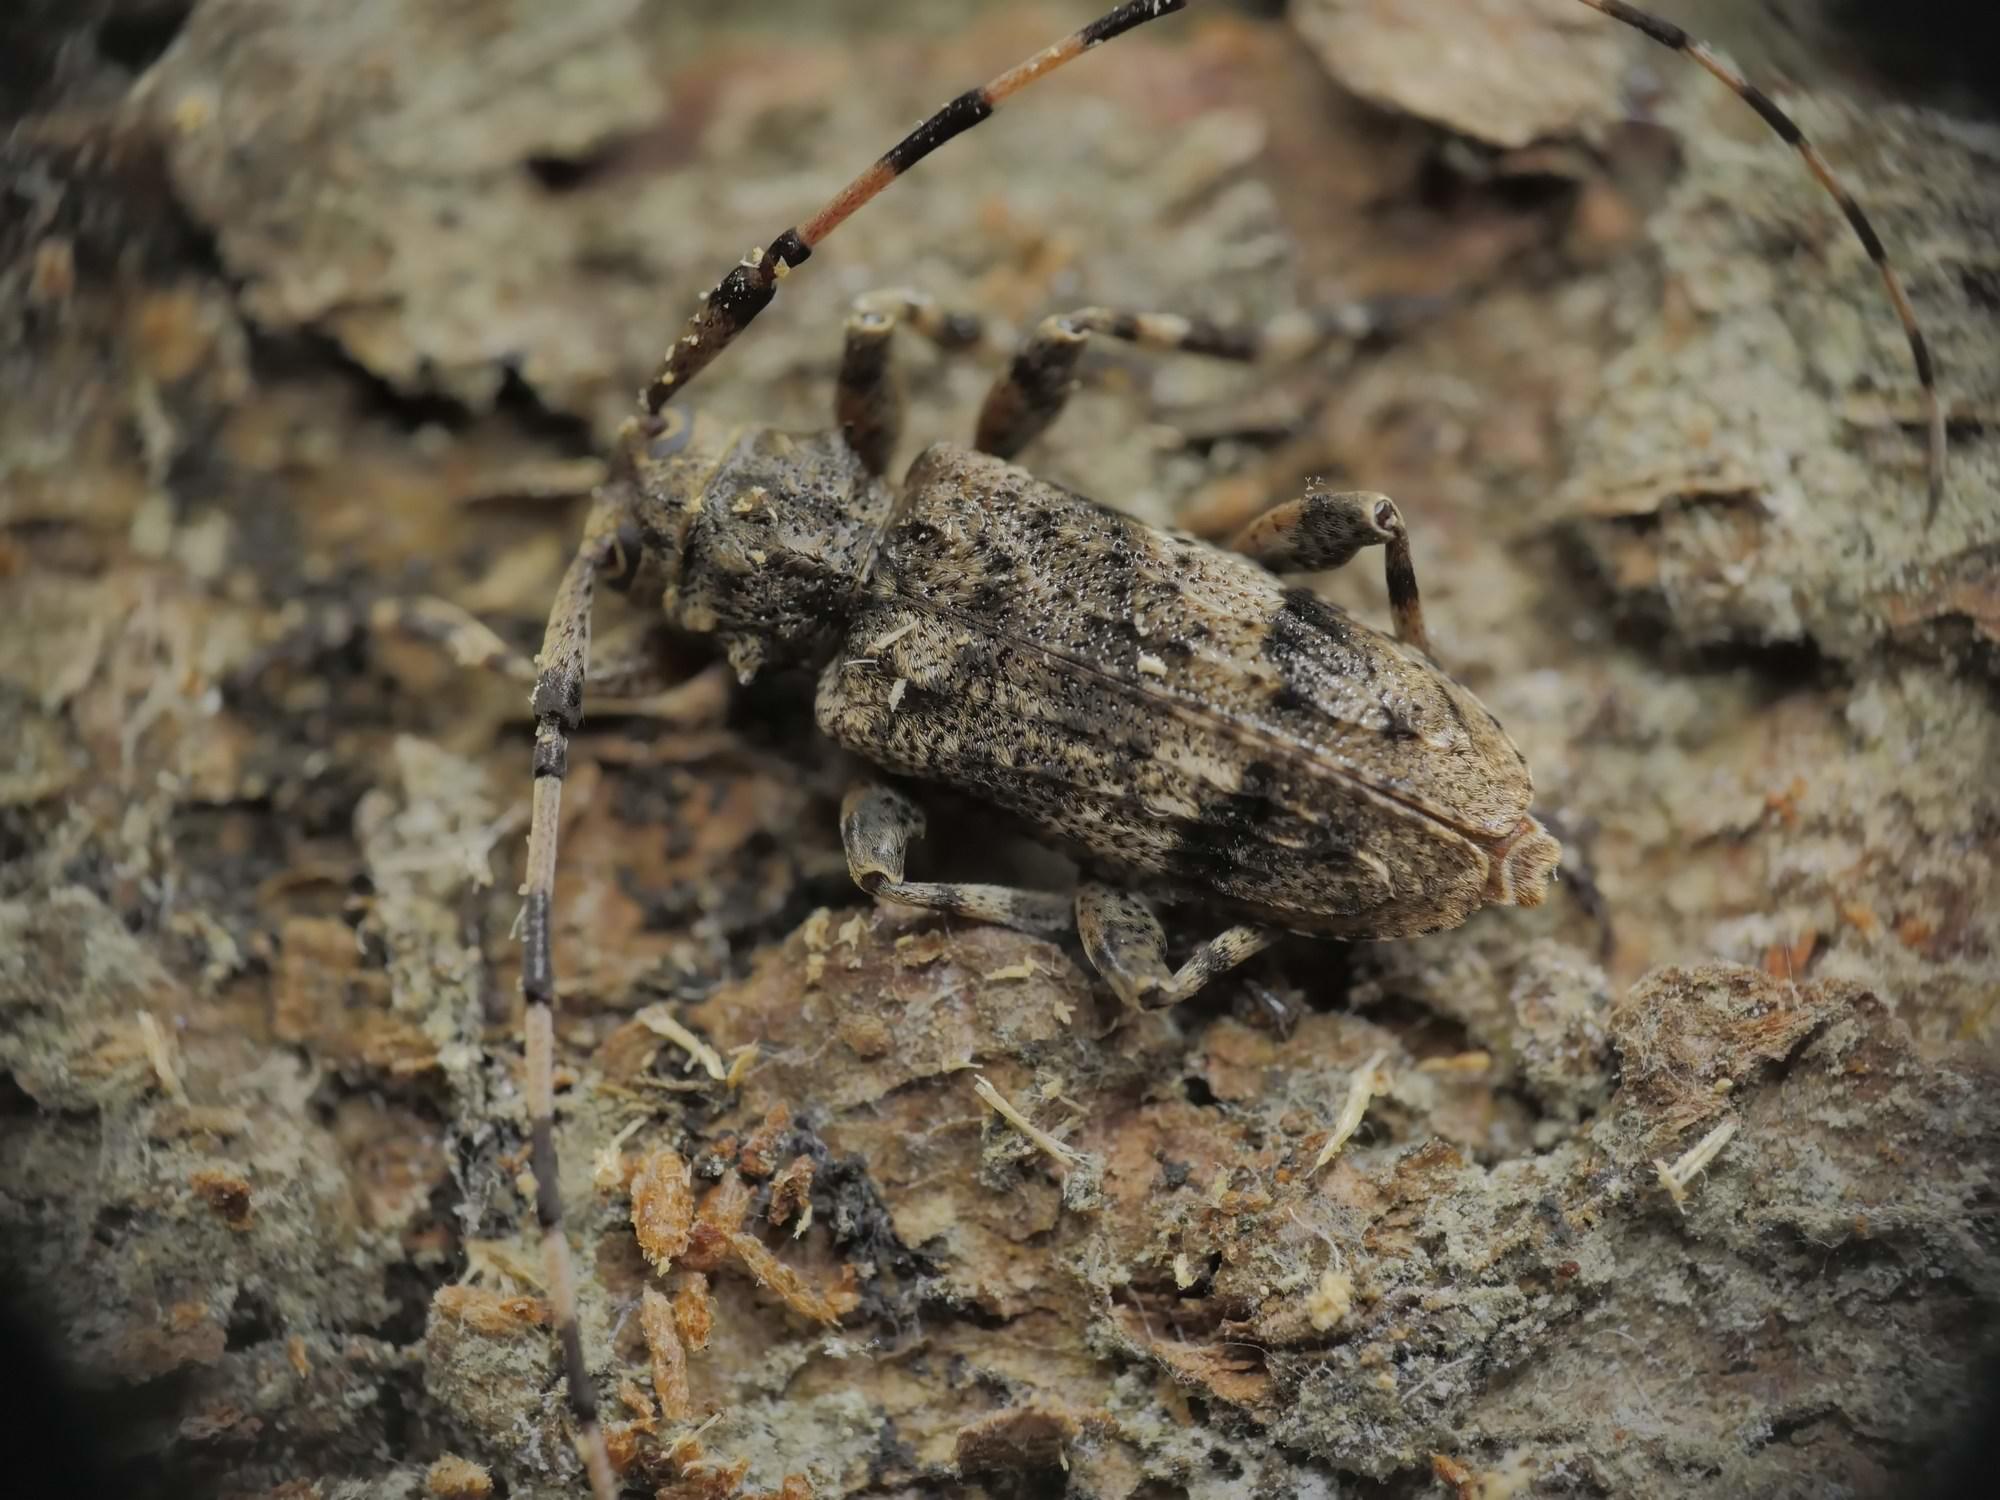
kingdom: Animalia
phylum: Arthropoda
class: Insecta
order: Coleoptera
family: Cerambycidae
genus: Acanthocinus
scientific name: Acanthocinus reticulatus
